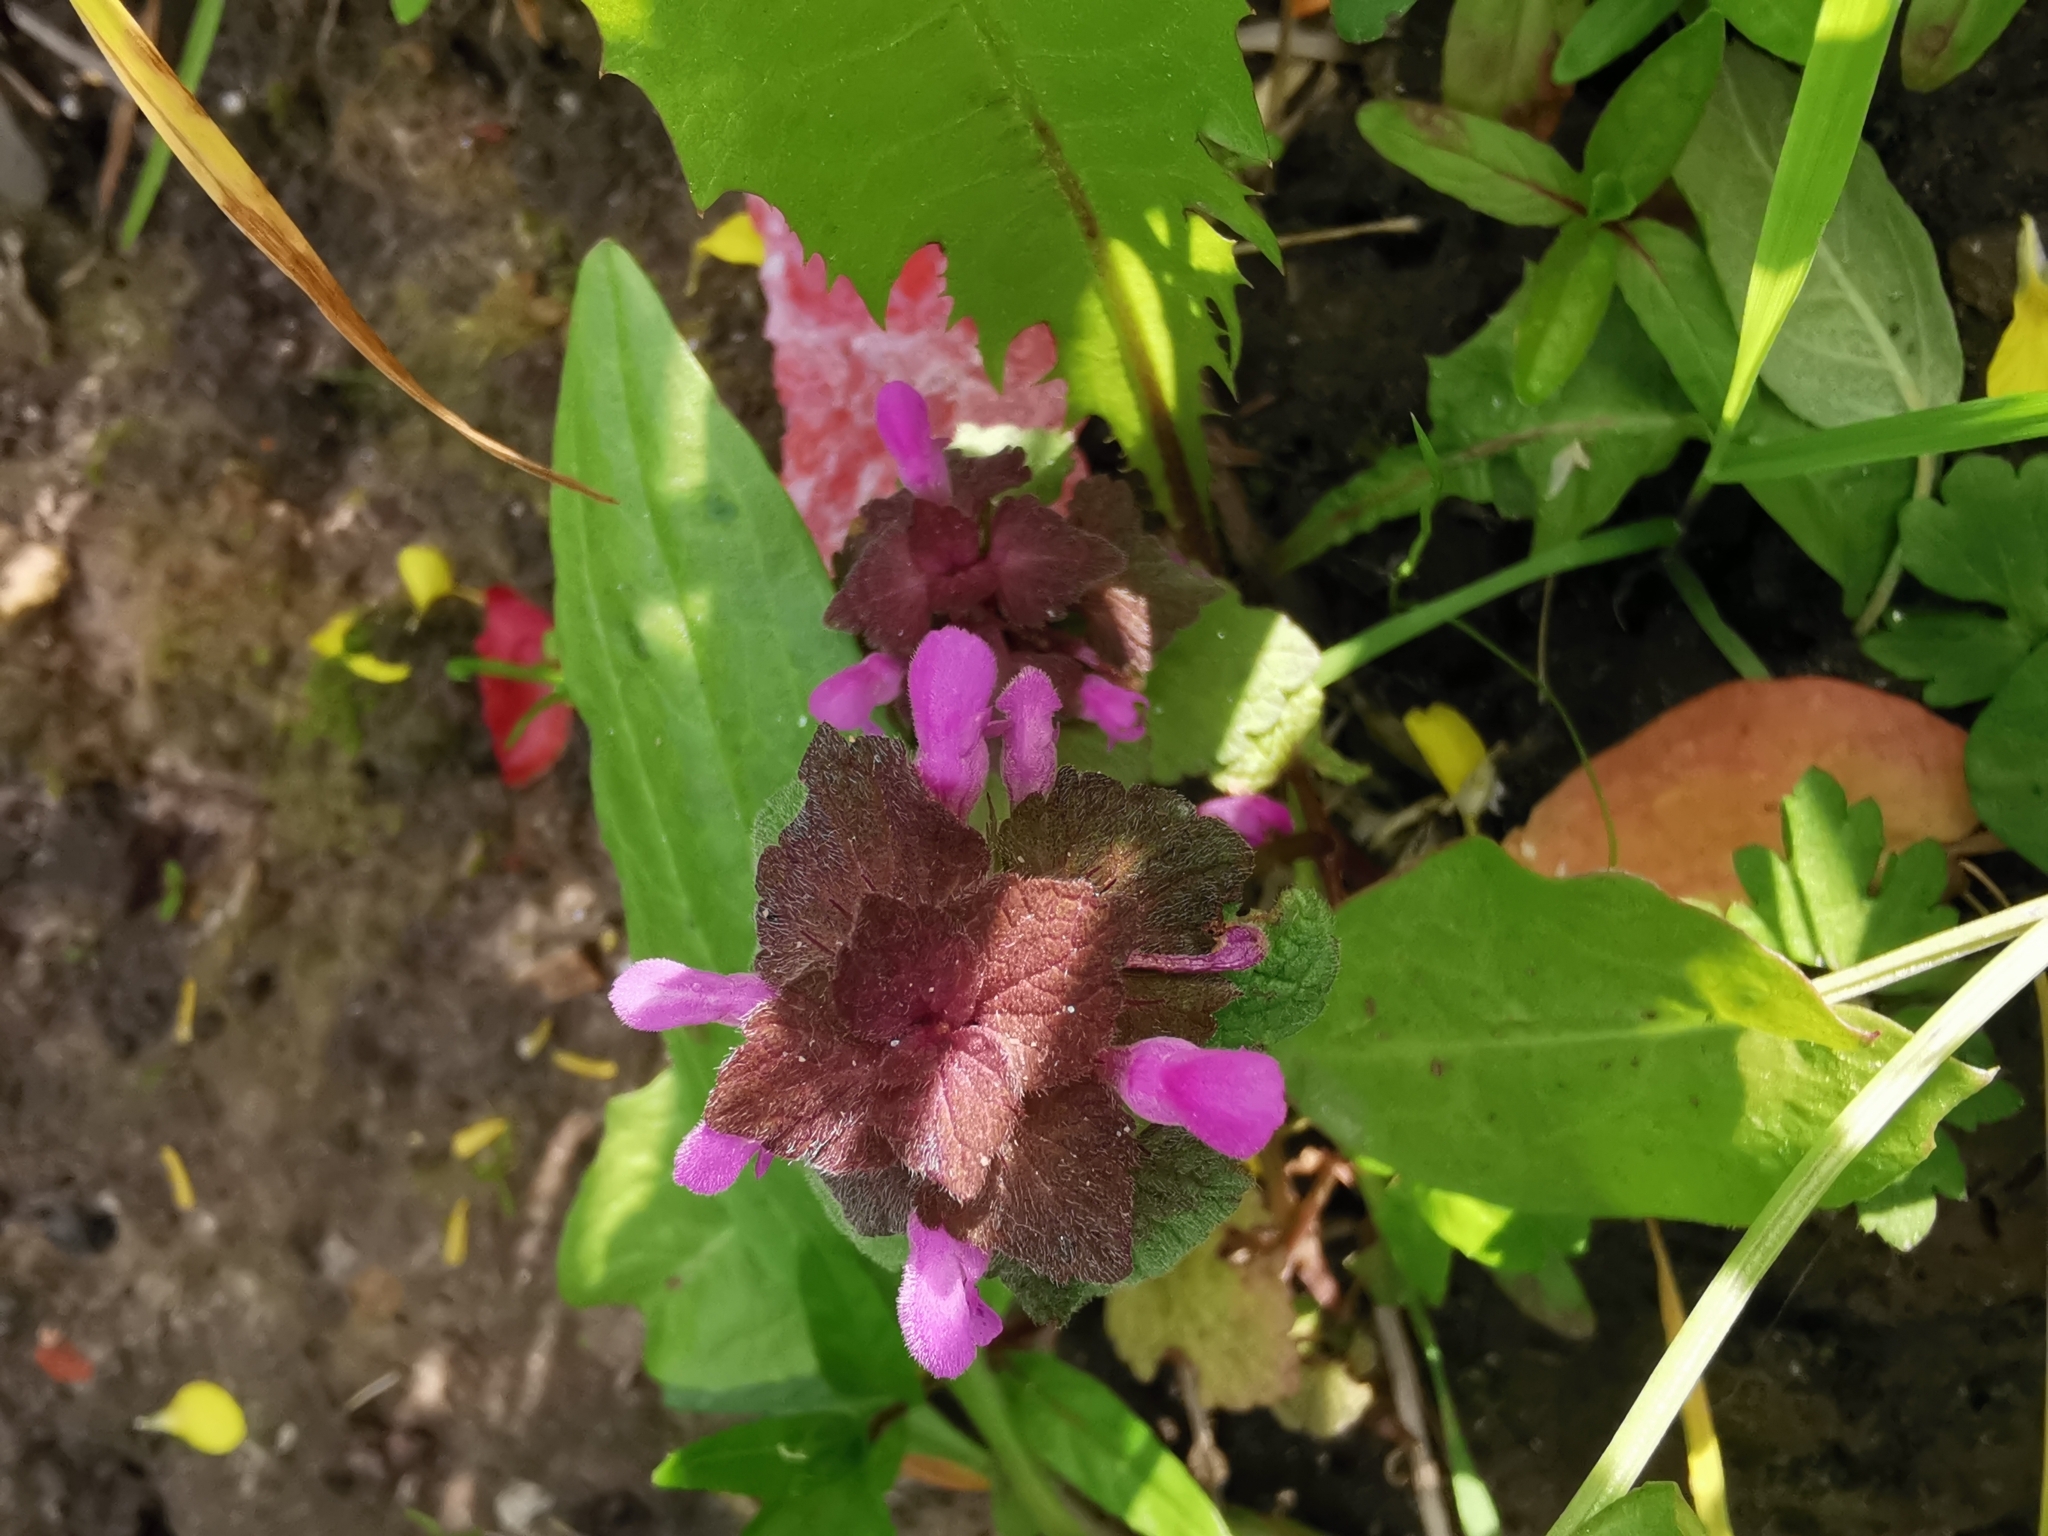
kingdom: Plantae
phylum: Tracheophyta
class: Magnoliopsida
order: Lamiales
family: Lamiaceae
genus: Lamium
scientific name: Lamium purpureum
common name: Red dead-nettle
